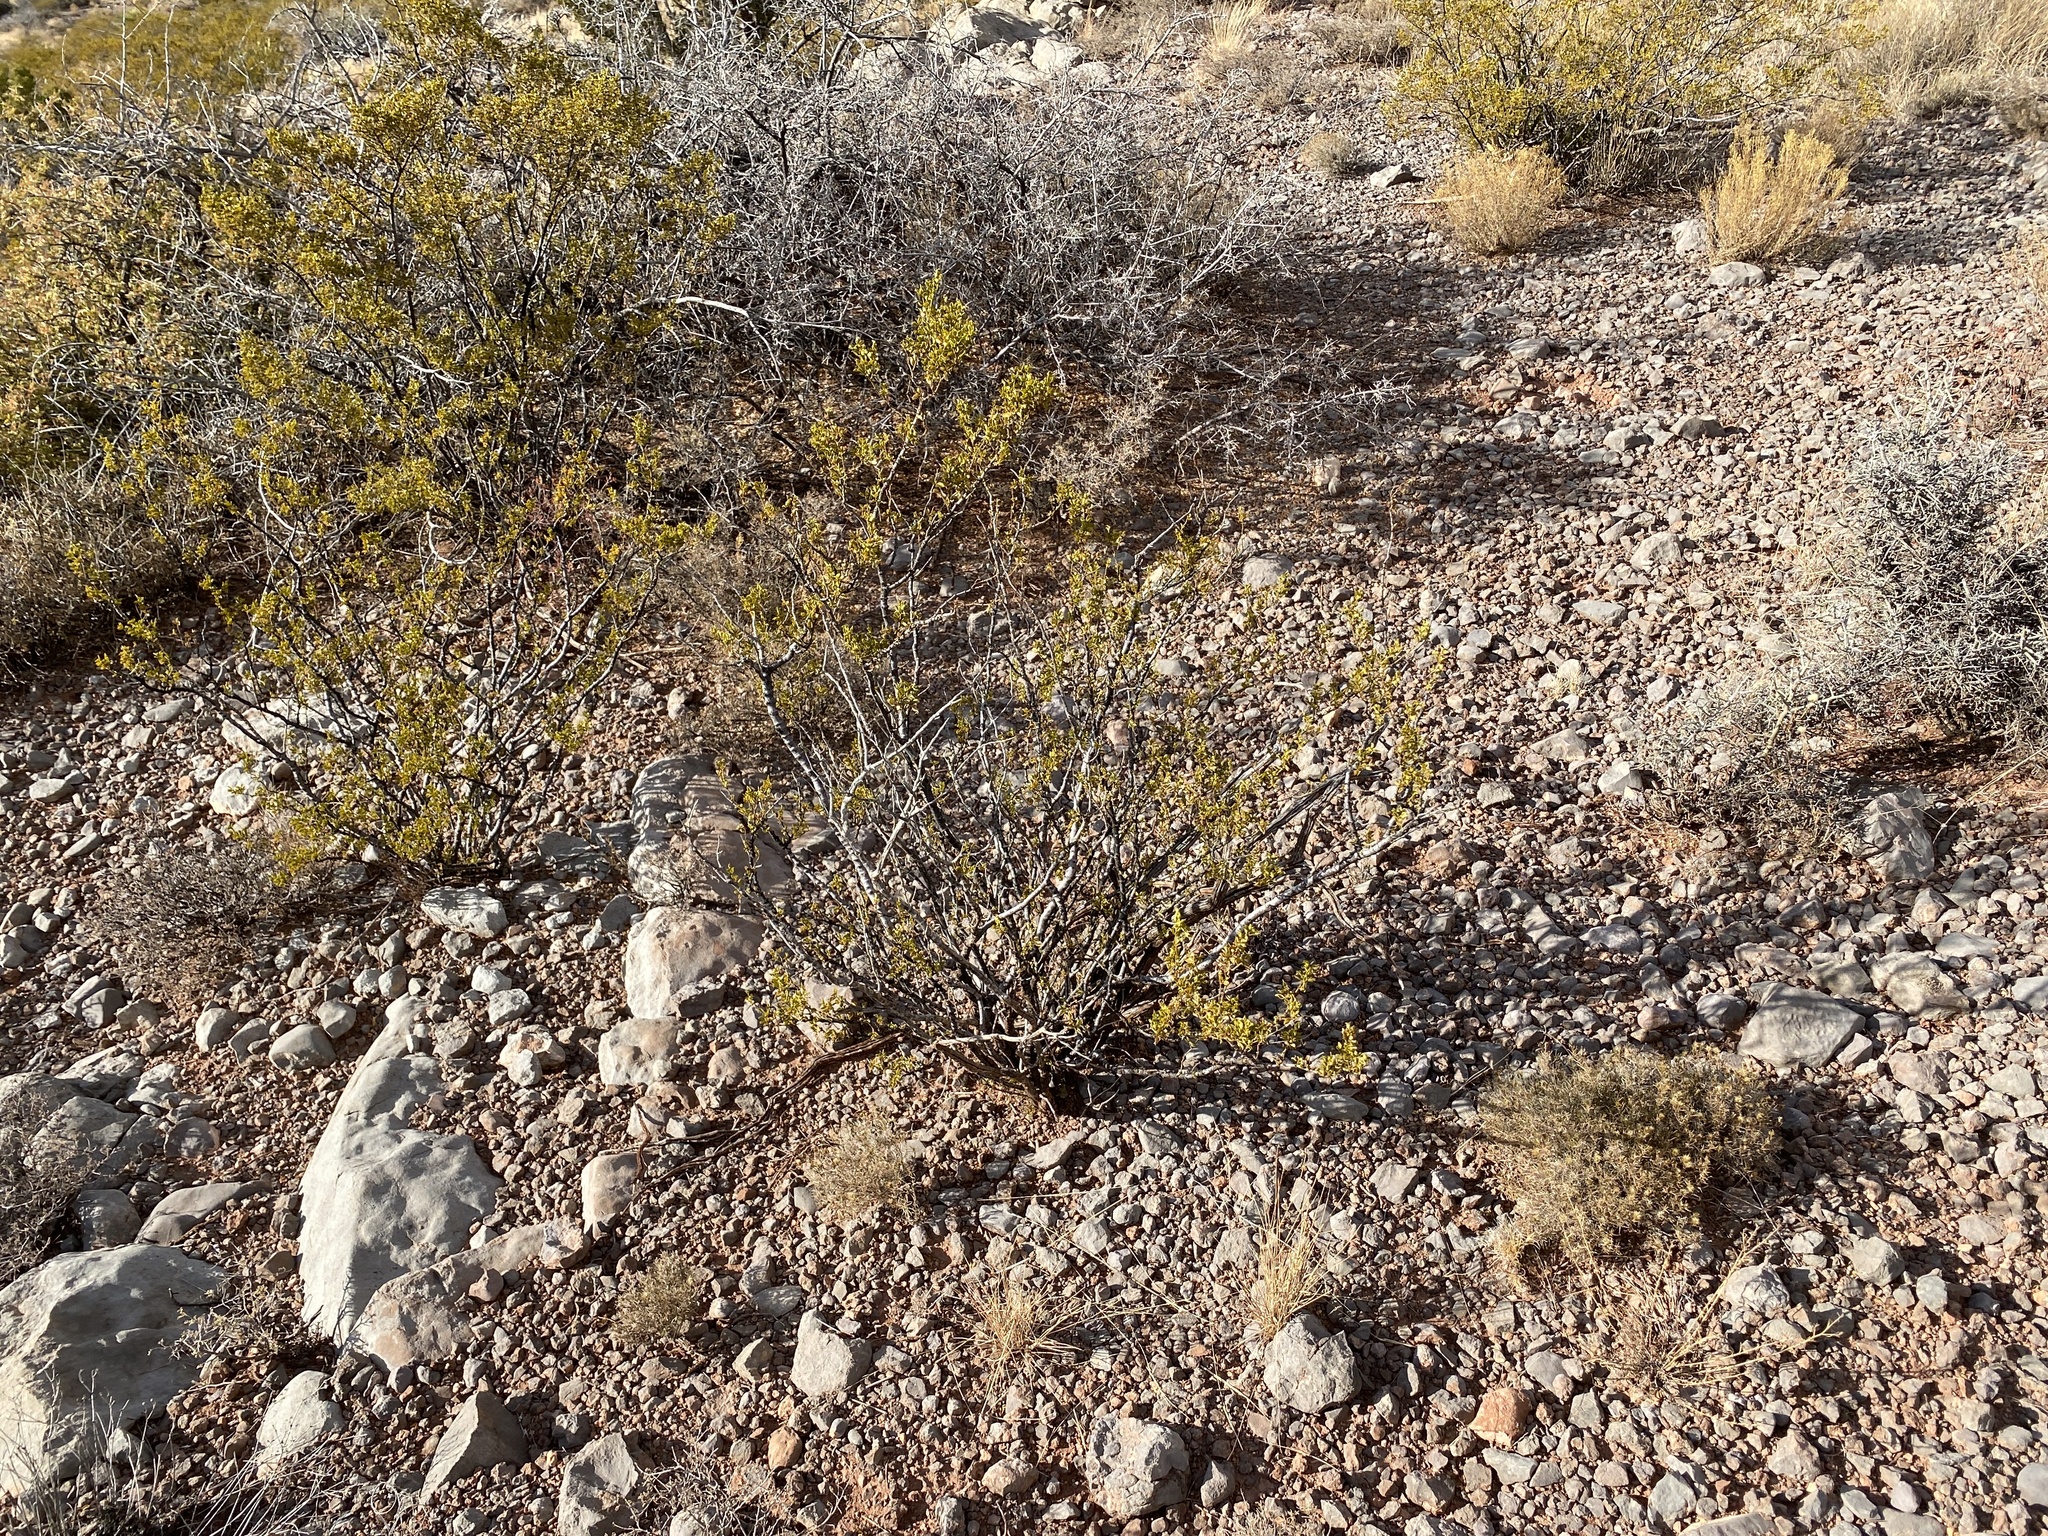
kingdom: Plantae
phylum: Tracheophyta
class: Magnoliopsida
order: Zygophyllales
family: Zygophyllaceae
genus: Larrea
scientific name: Larrea tridentata
